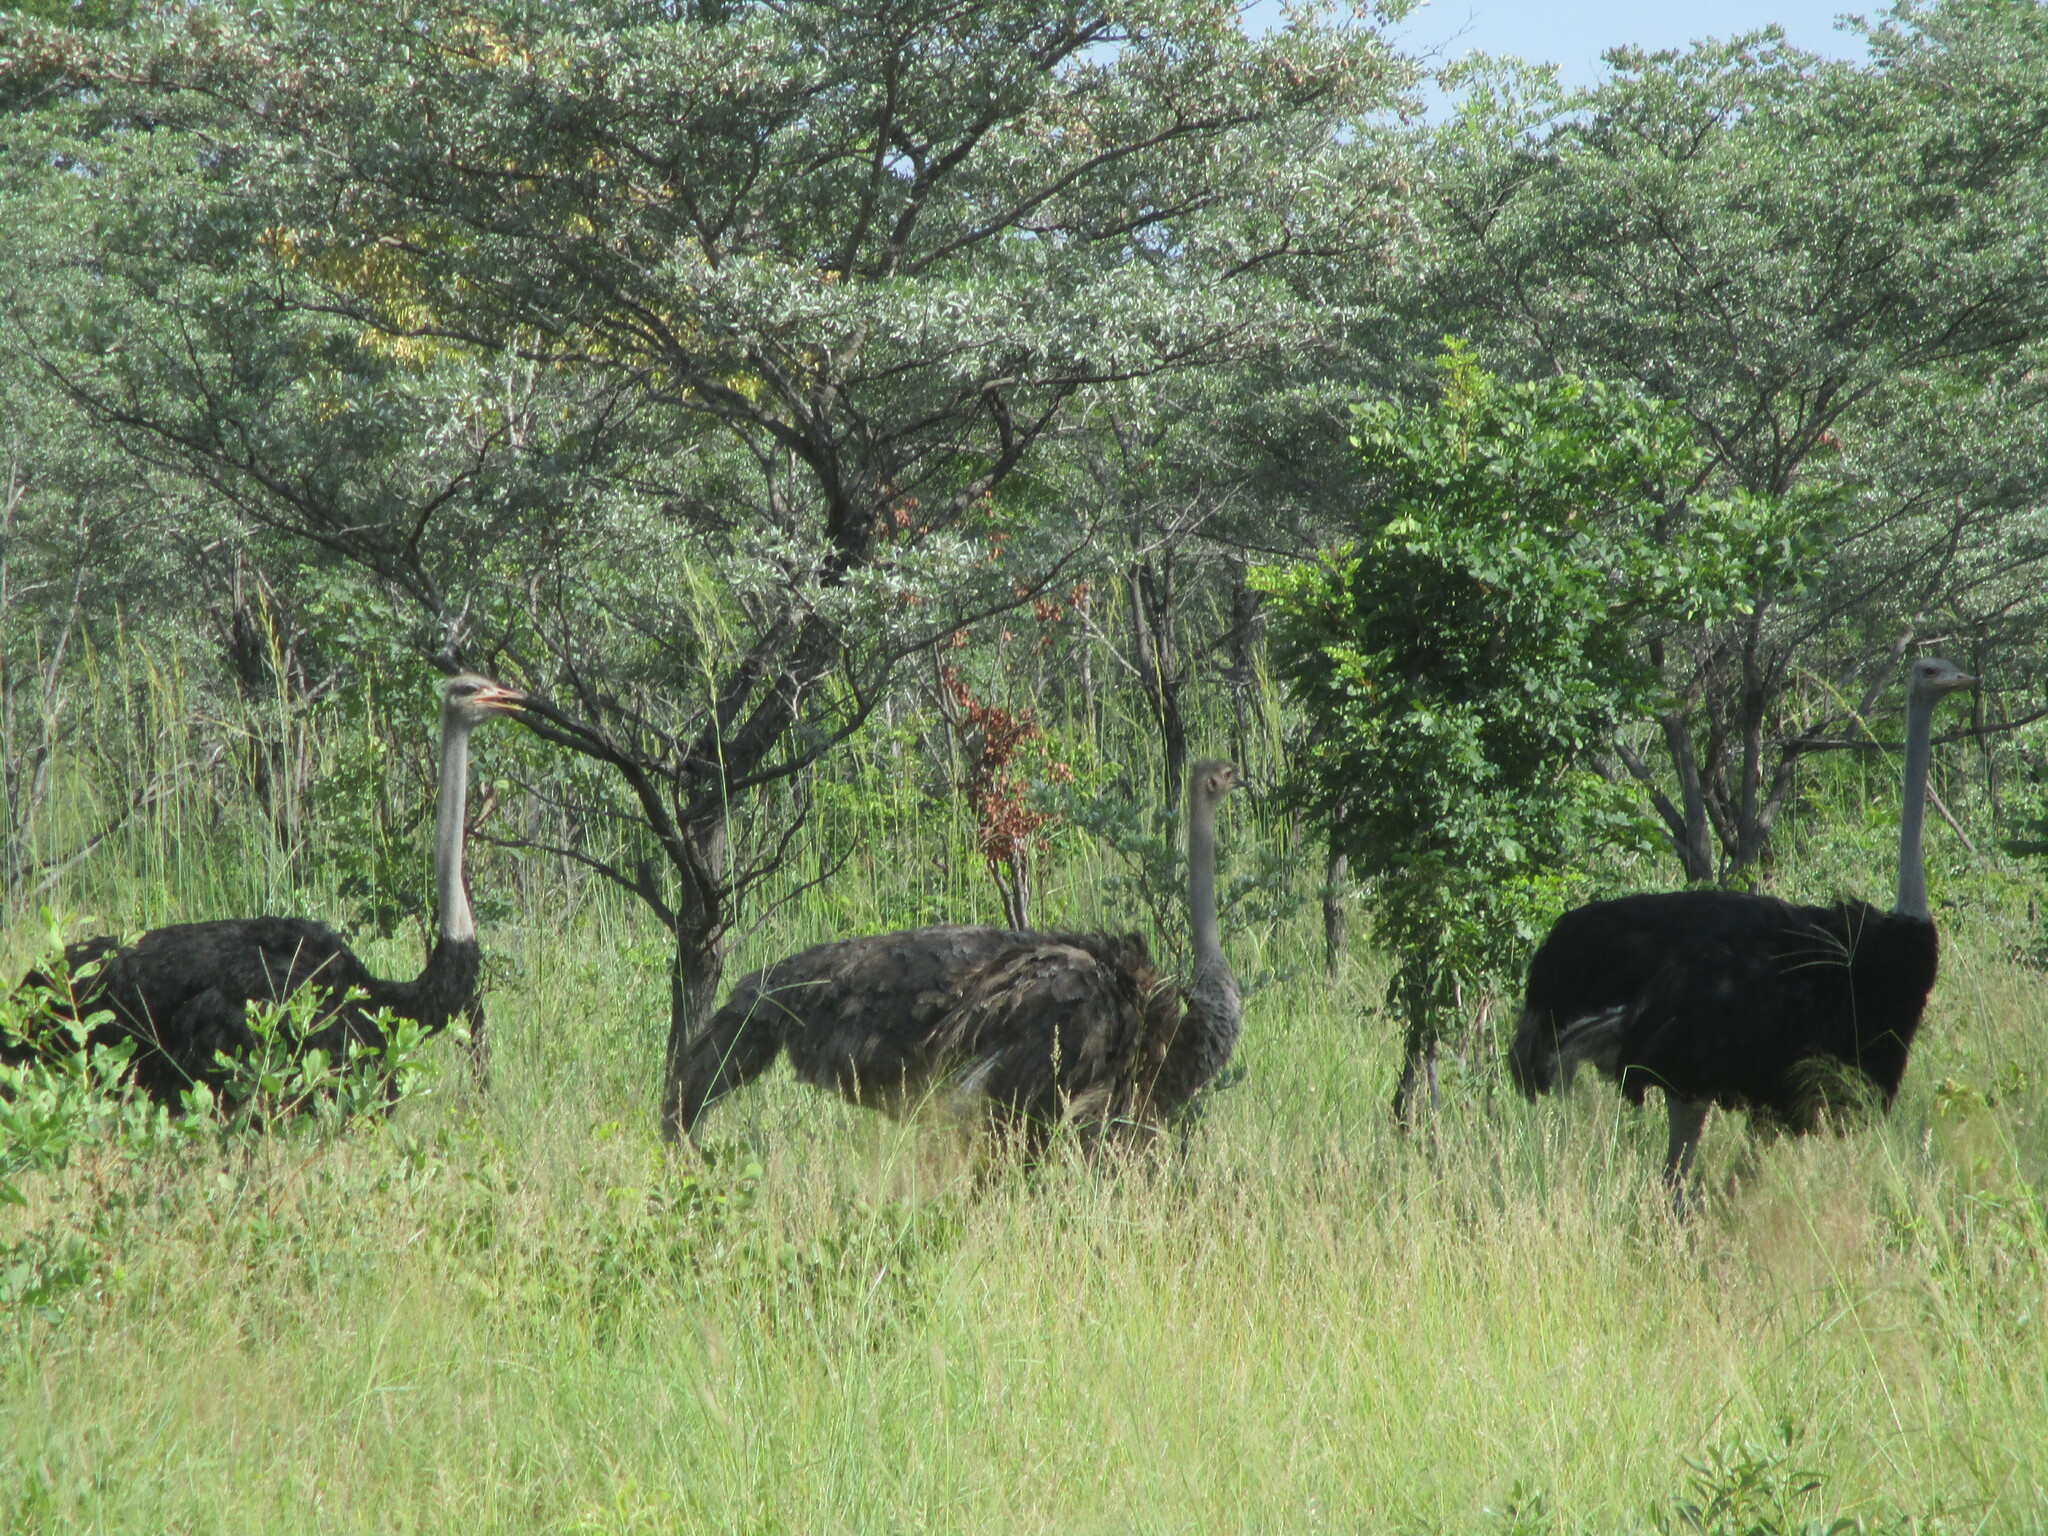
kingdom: Animalia
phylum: Chordata
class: Aves
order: Struthioniformes
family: Struthionidae
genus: Struthio
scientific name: Struthio camelus
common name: Common ostrich
